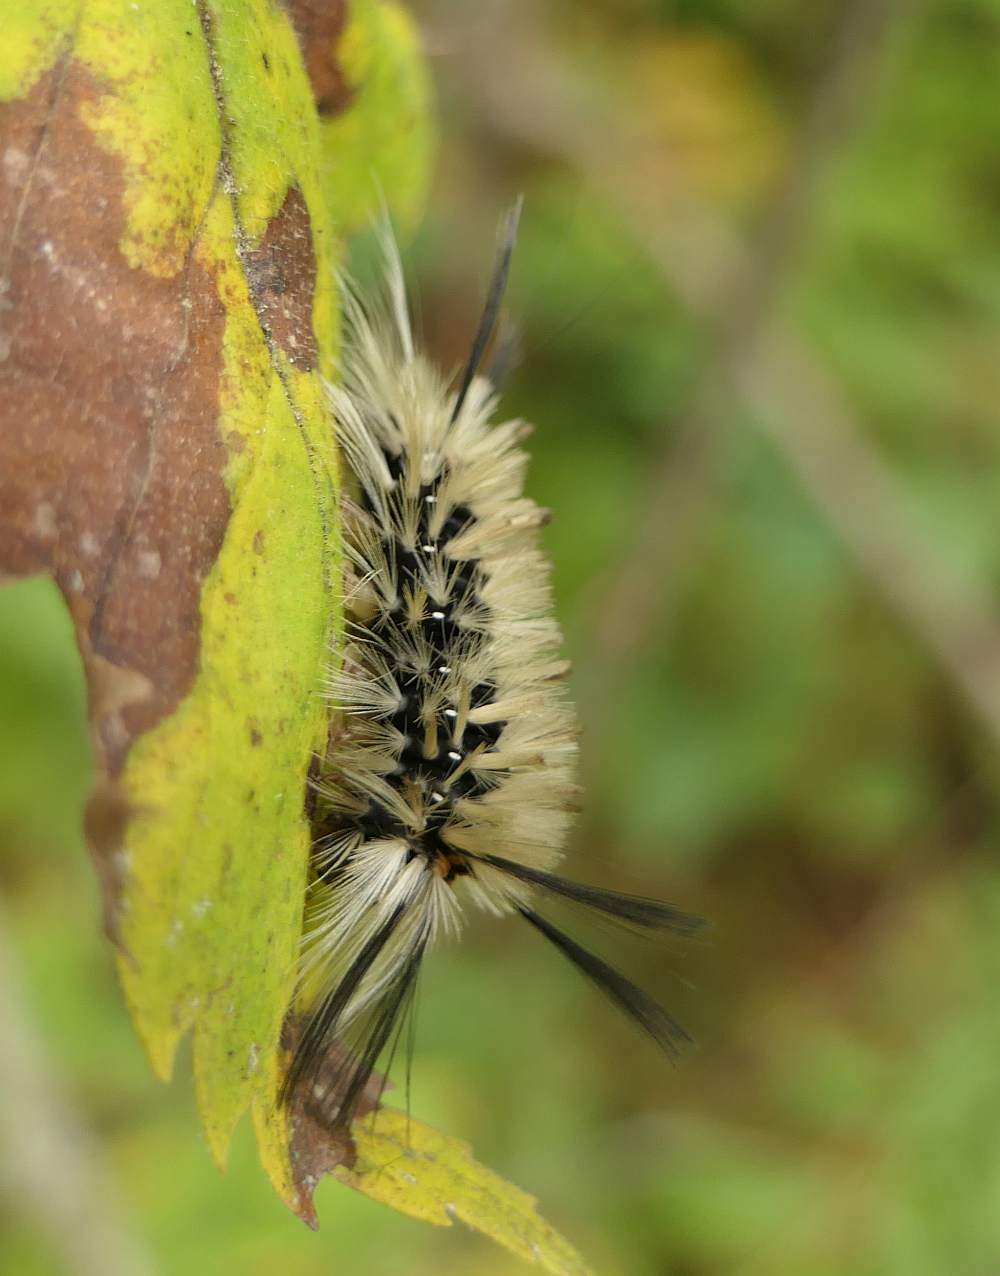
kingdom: Animalia
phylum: Arthropoda
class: Insecta
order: Lepidoptera
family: Erebidae
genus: Halysidota
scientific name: Halysidota tessellaris
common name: Banded tussock moth
